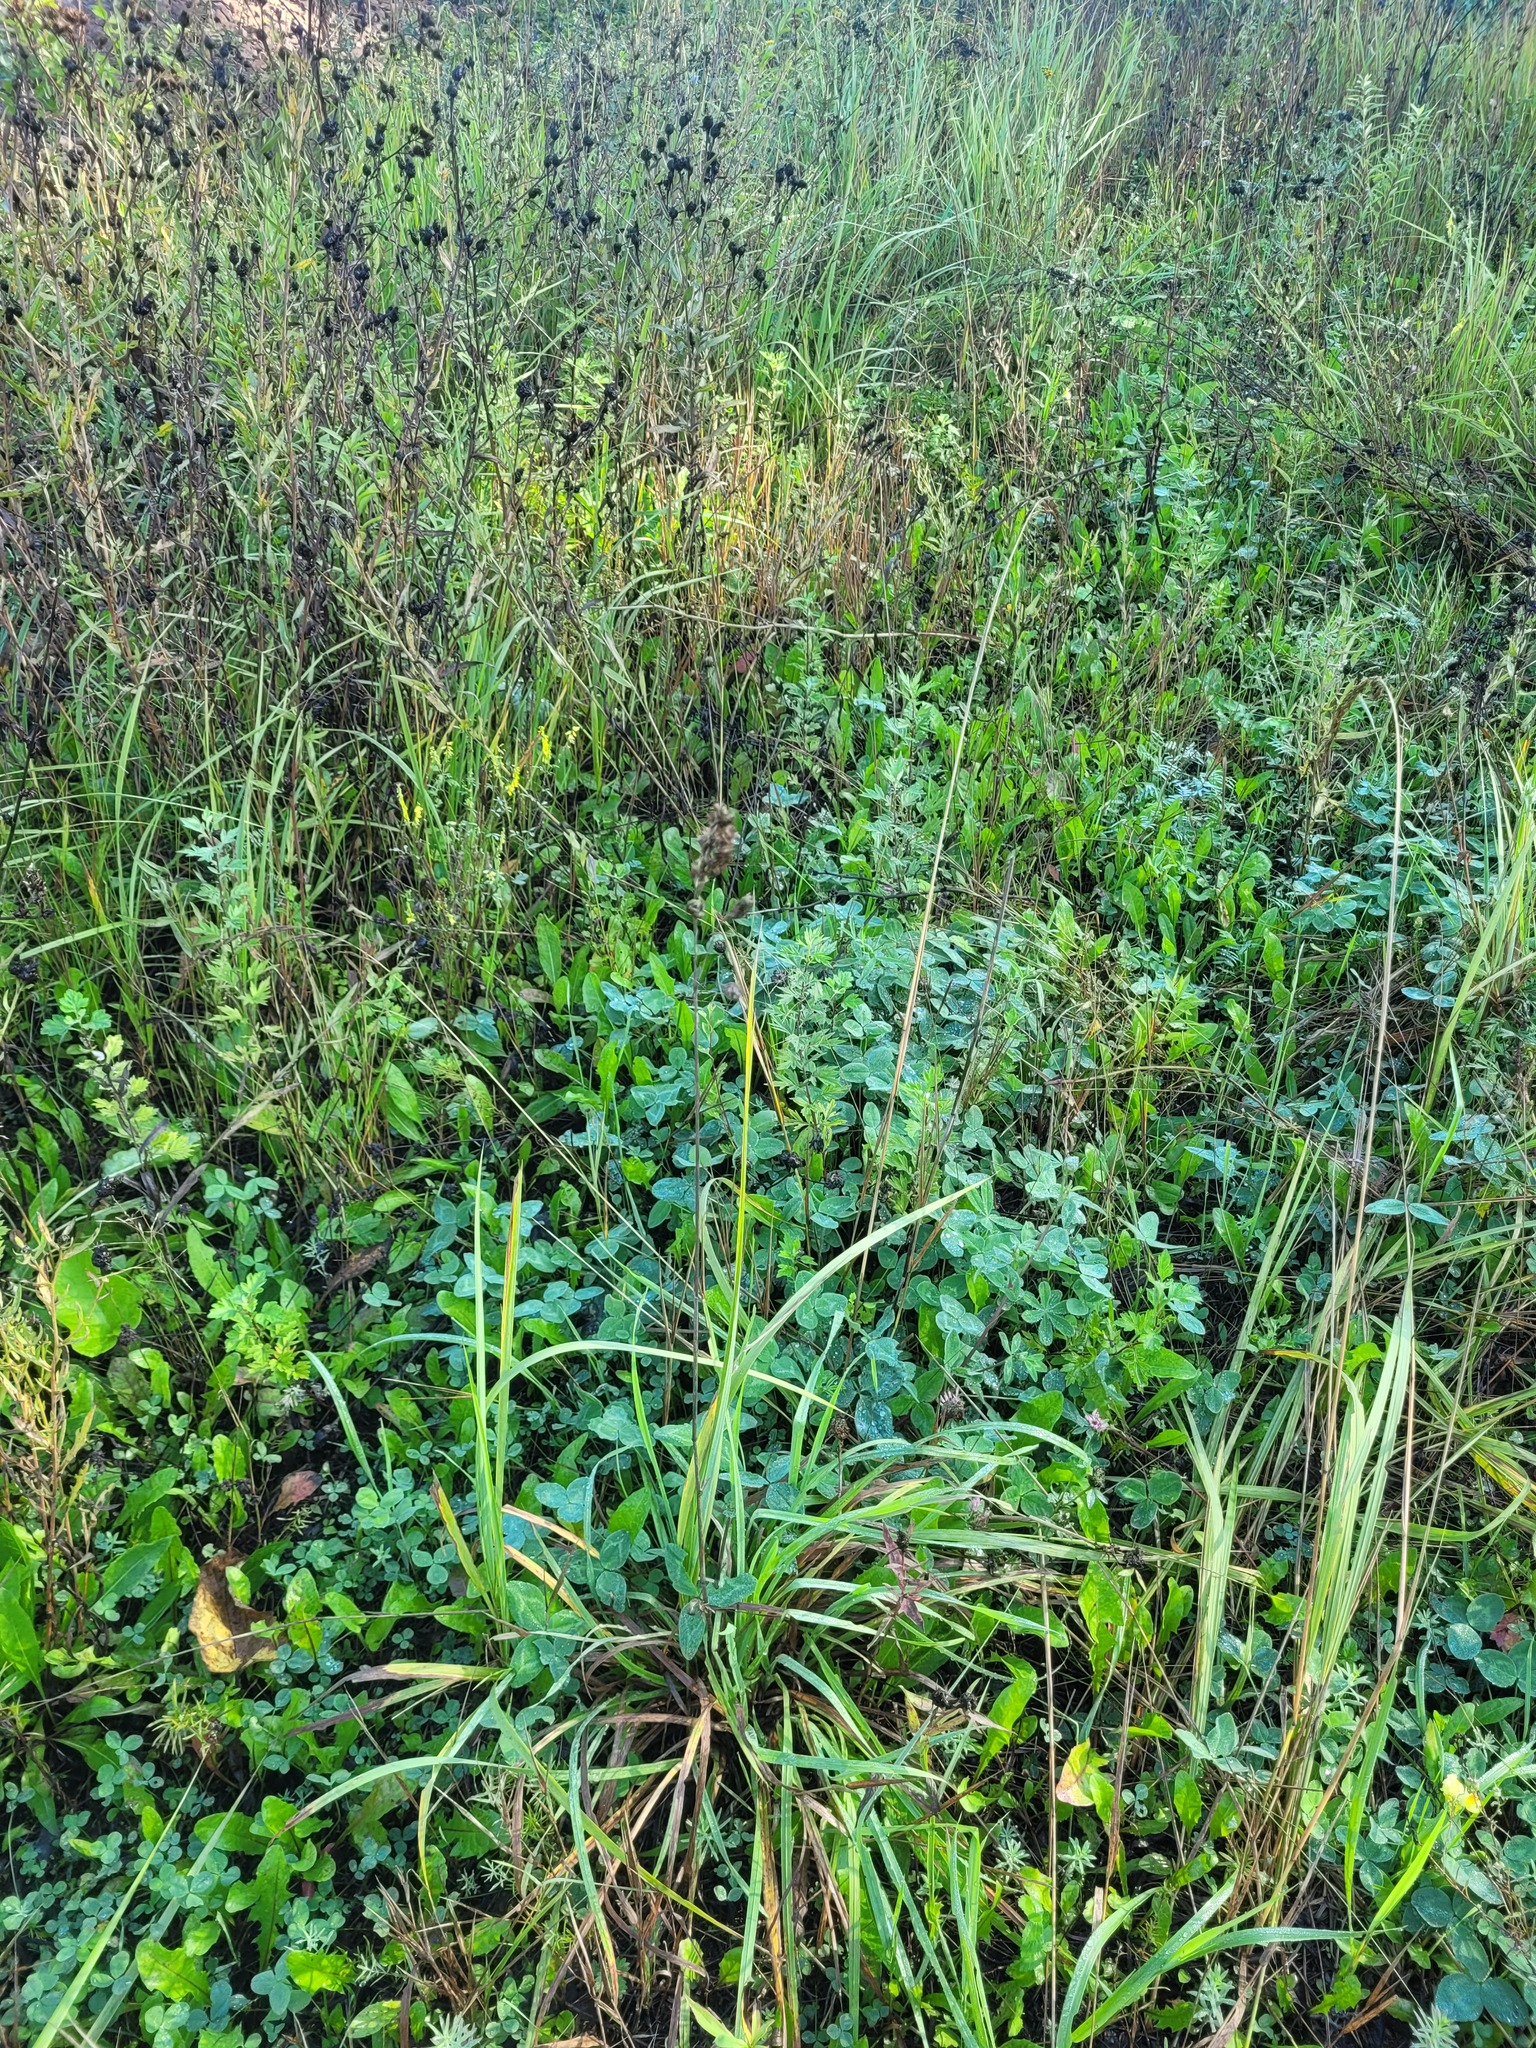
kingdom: Plantae
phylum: Tracheophyta
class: Liliopsida
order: Poales
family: Poaceae
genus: Dactylis
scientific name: Dactylis glomerata
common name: Orchardgrass
